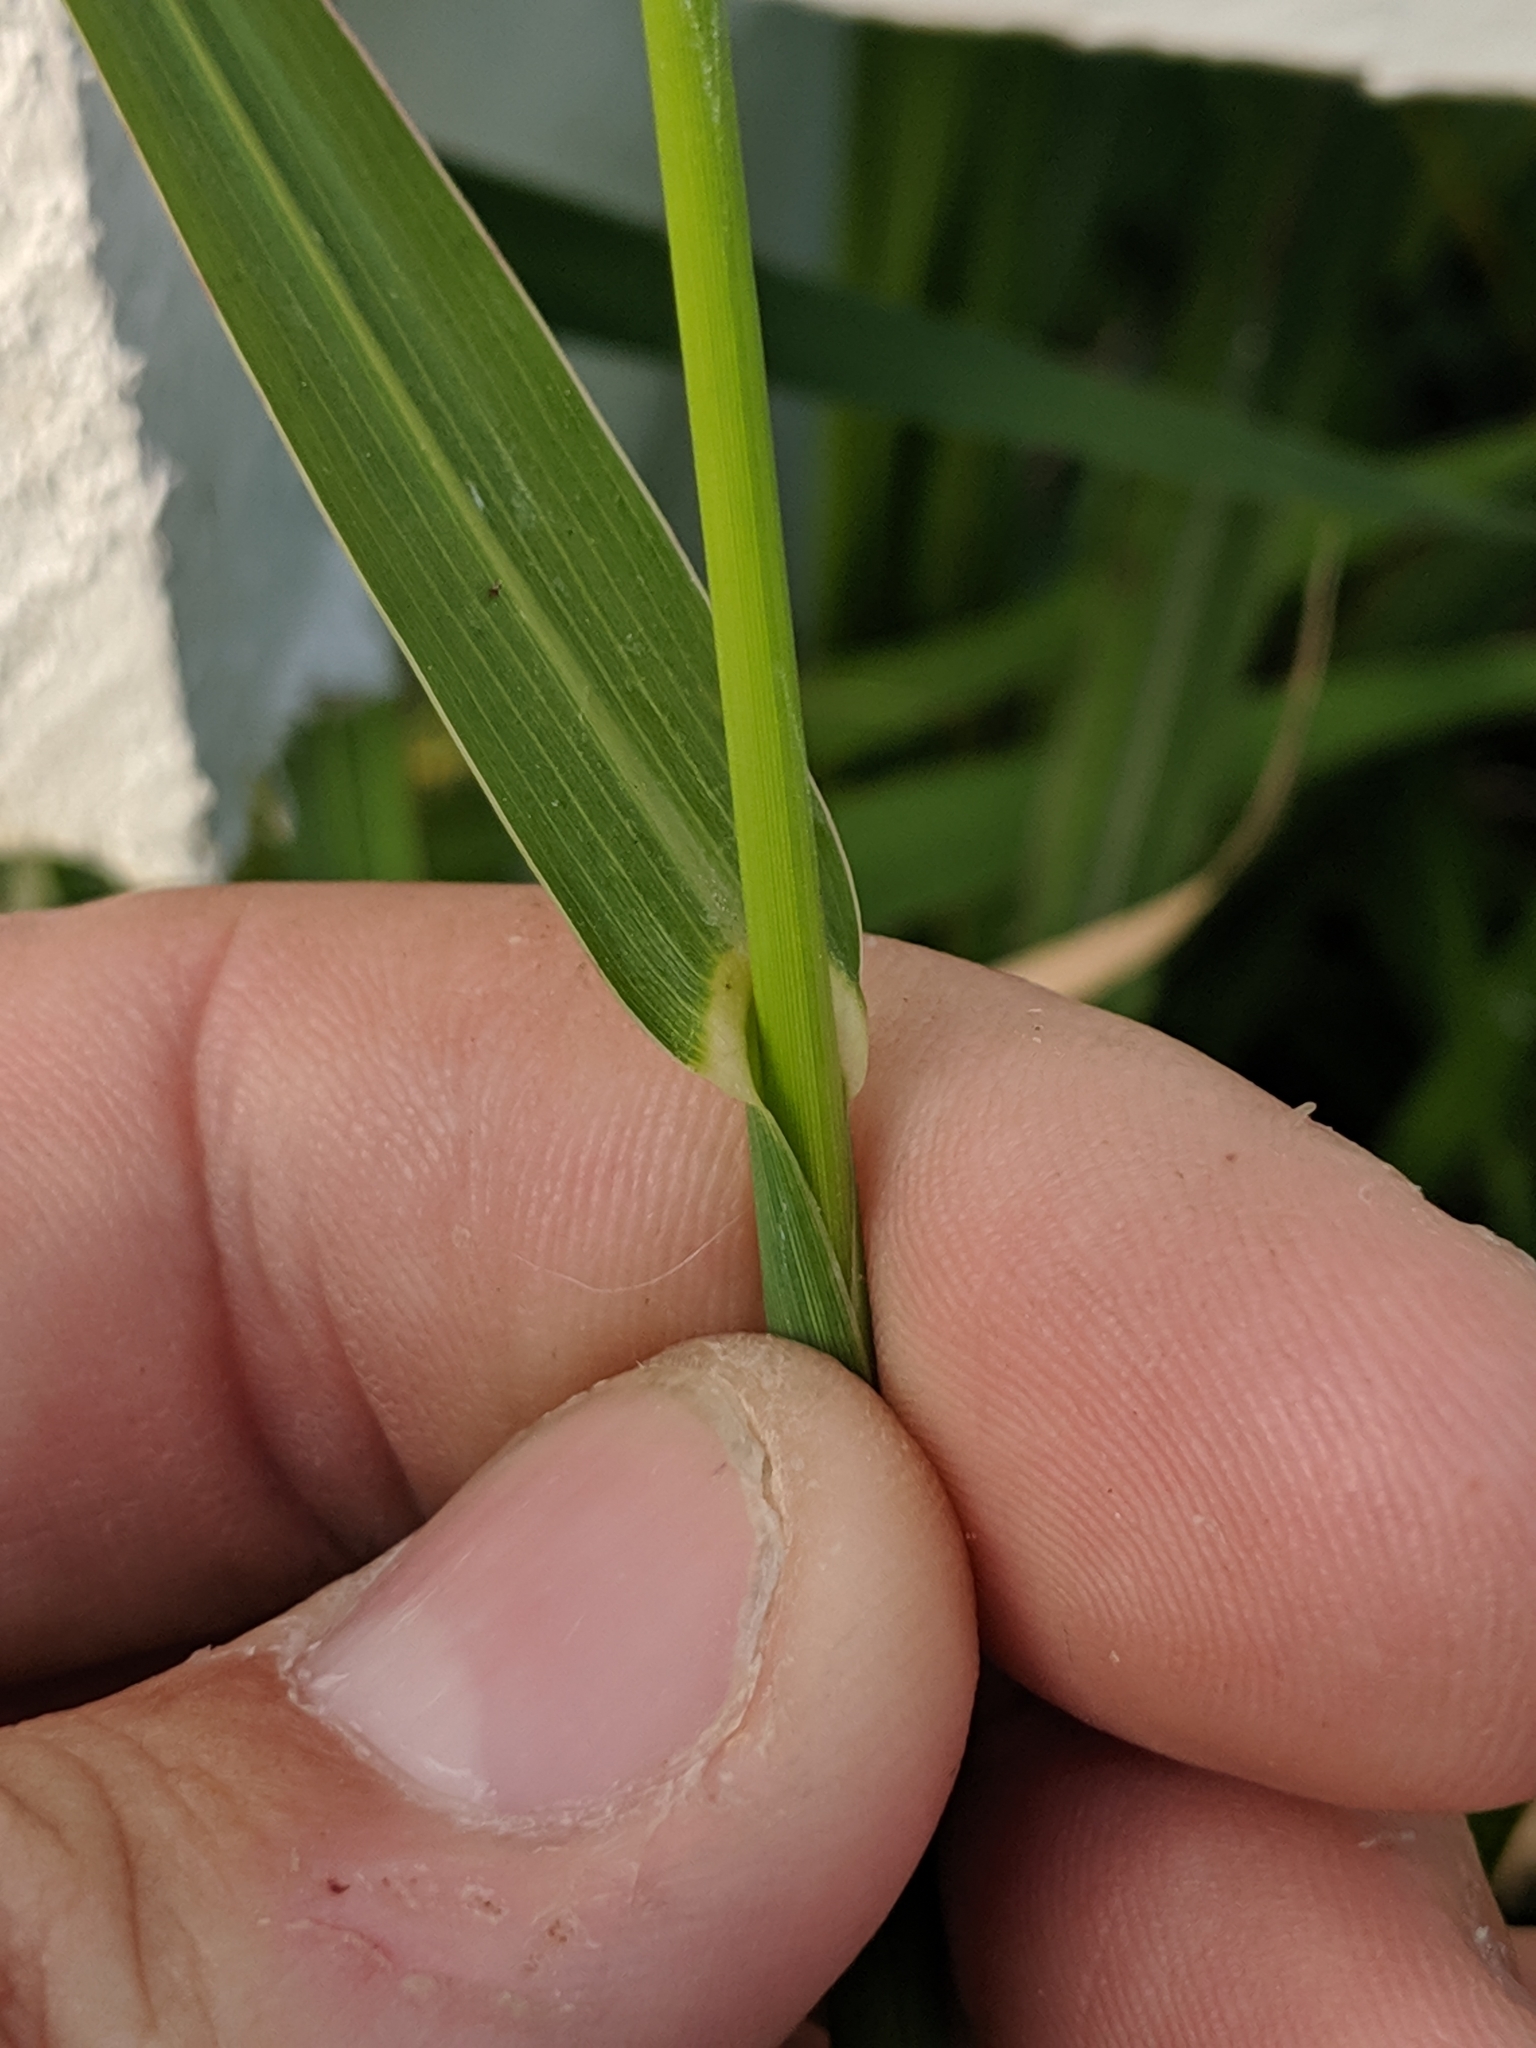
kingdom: Plantae
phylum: Tracheophyta
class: Liliopsida
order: Poales
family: Poaceae
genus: Echinochloa
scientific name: Echinochloa crus-galli
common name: Cockspur
